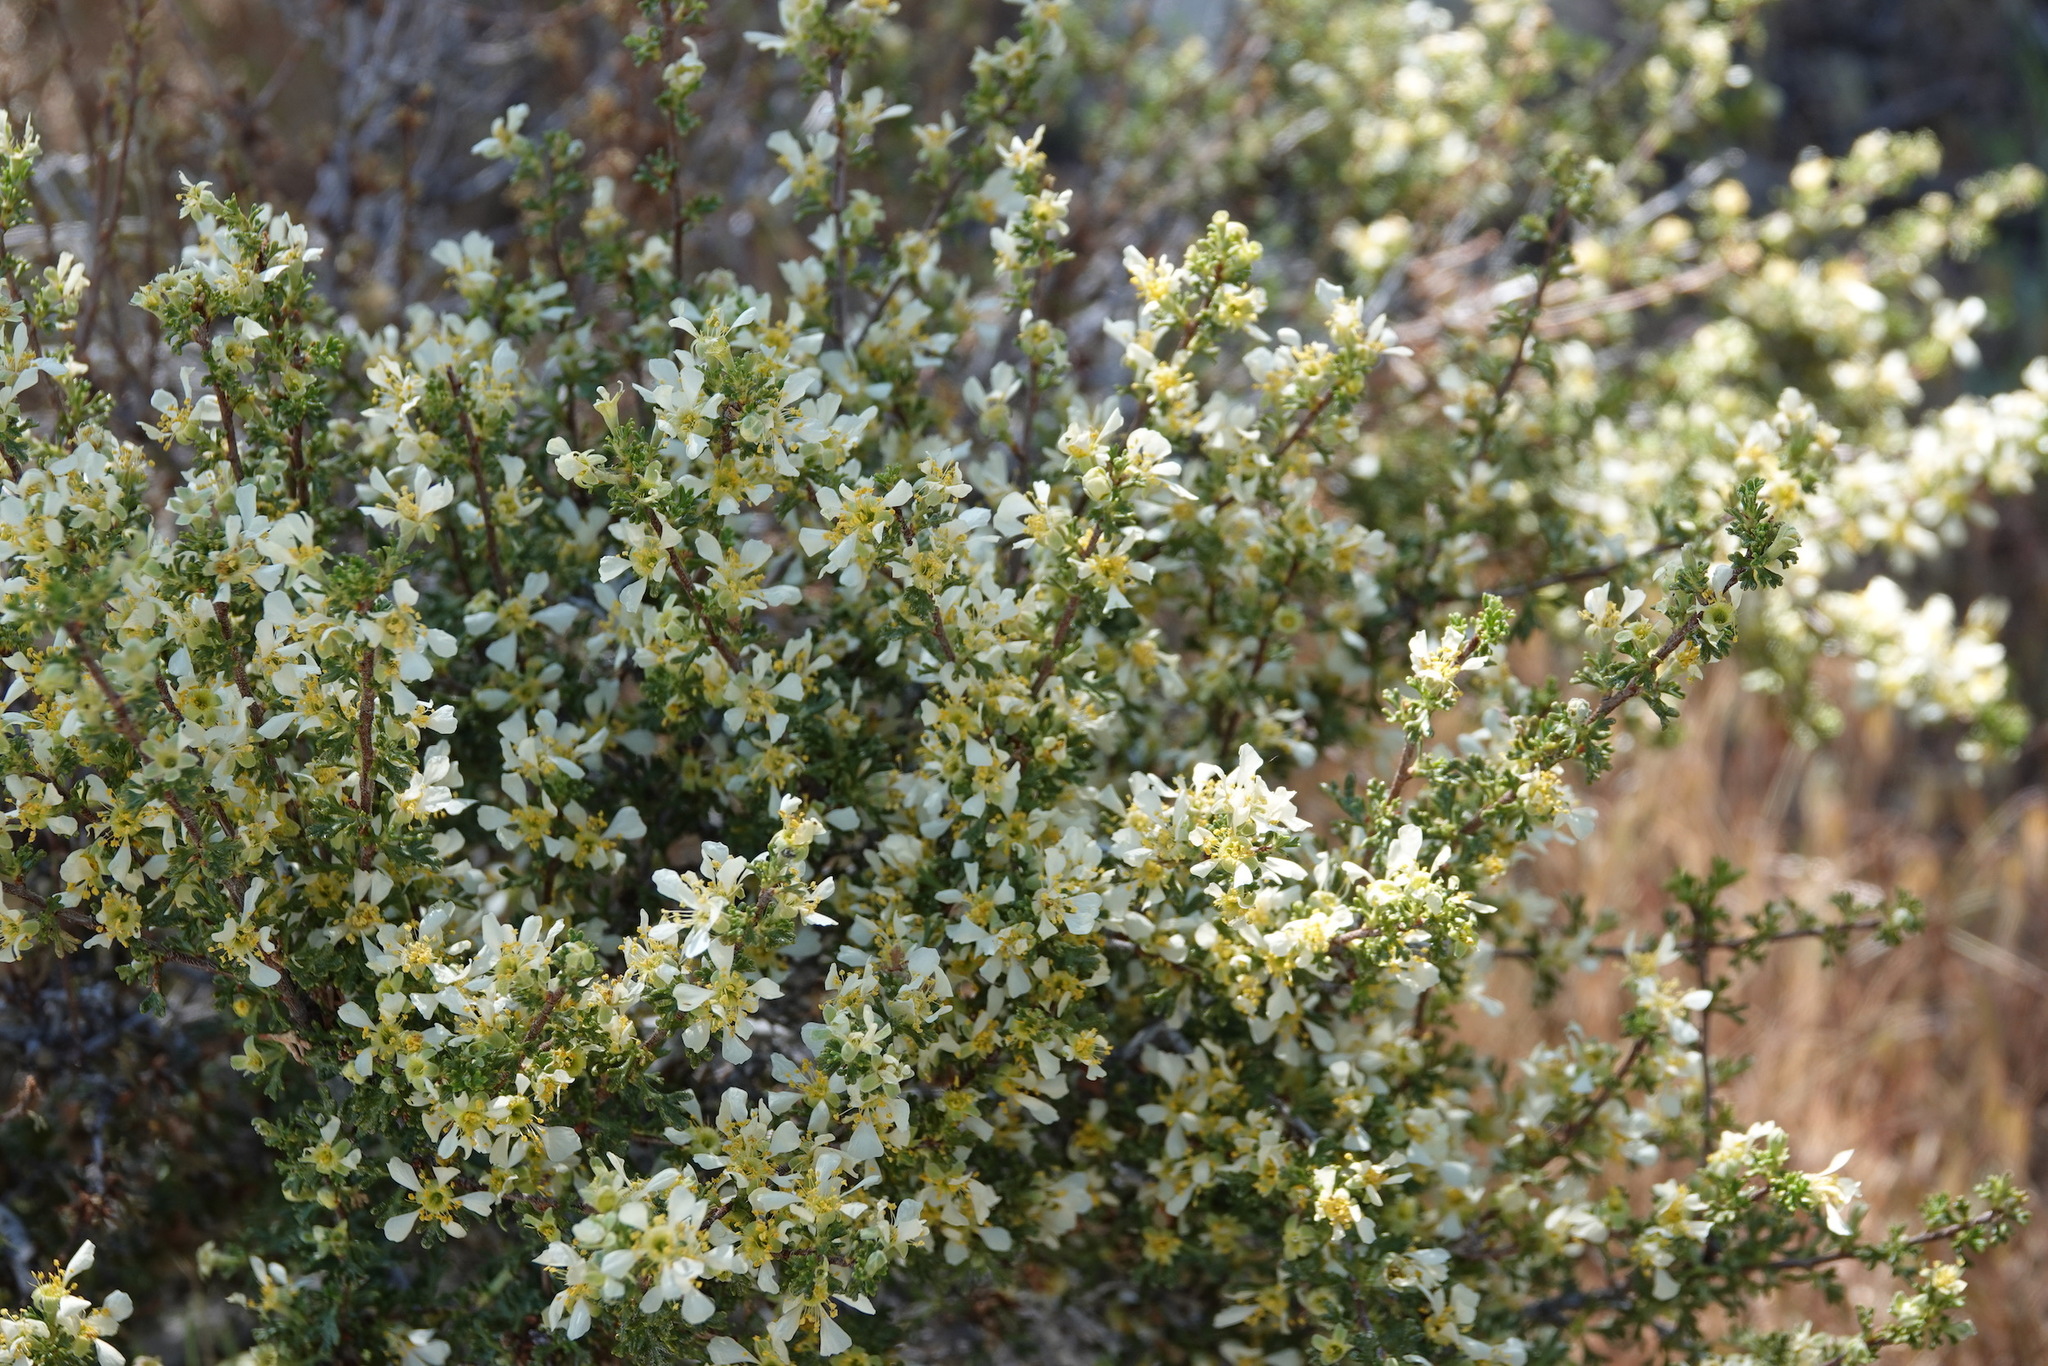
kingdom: Plantae
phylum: Tracheophyta
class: Magnoliopsida
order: Rosales
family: Rosaceae
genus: Purshia
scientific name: Purshia glandulosa
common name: Desert bitterbrush
